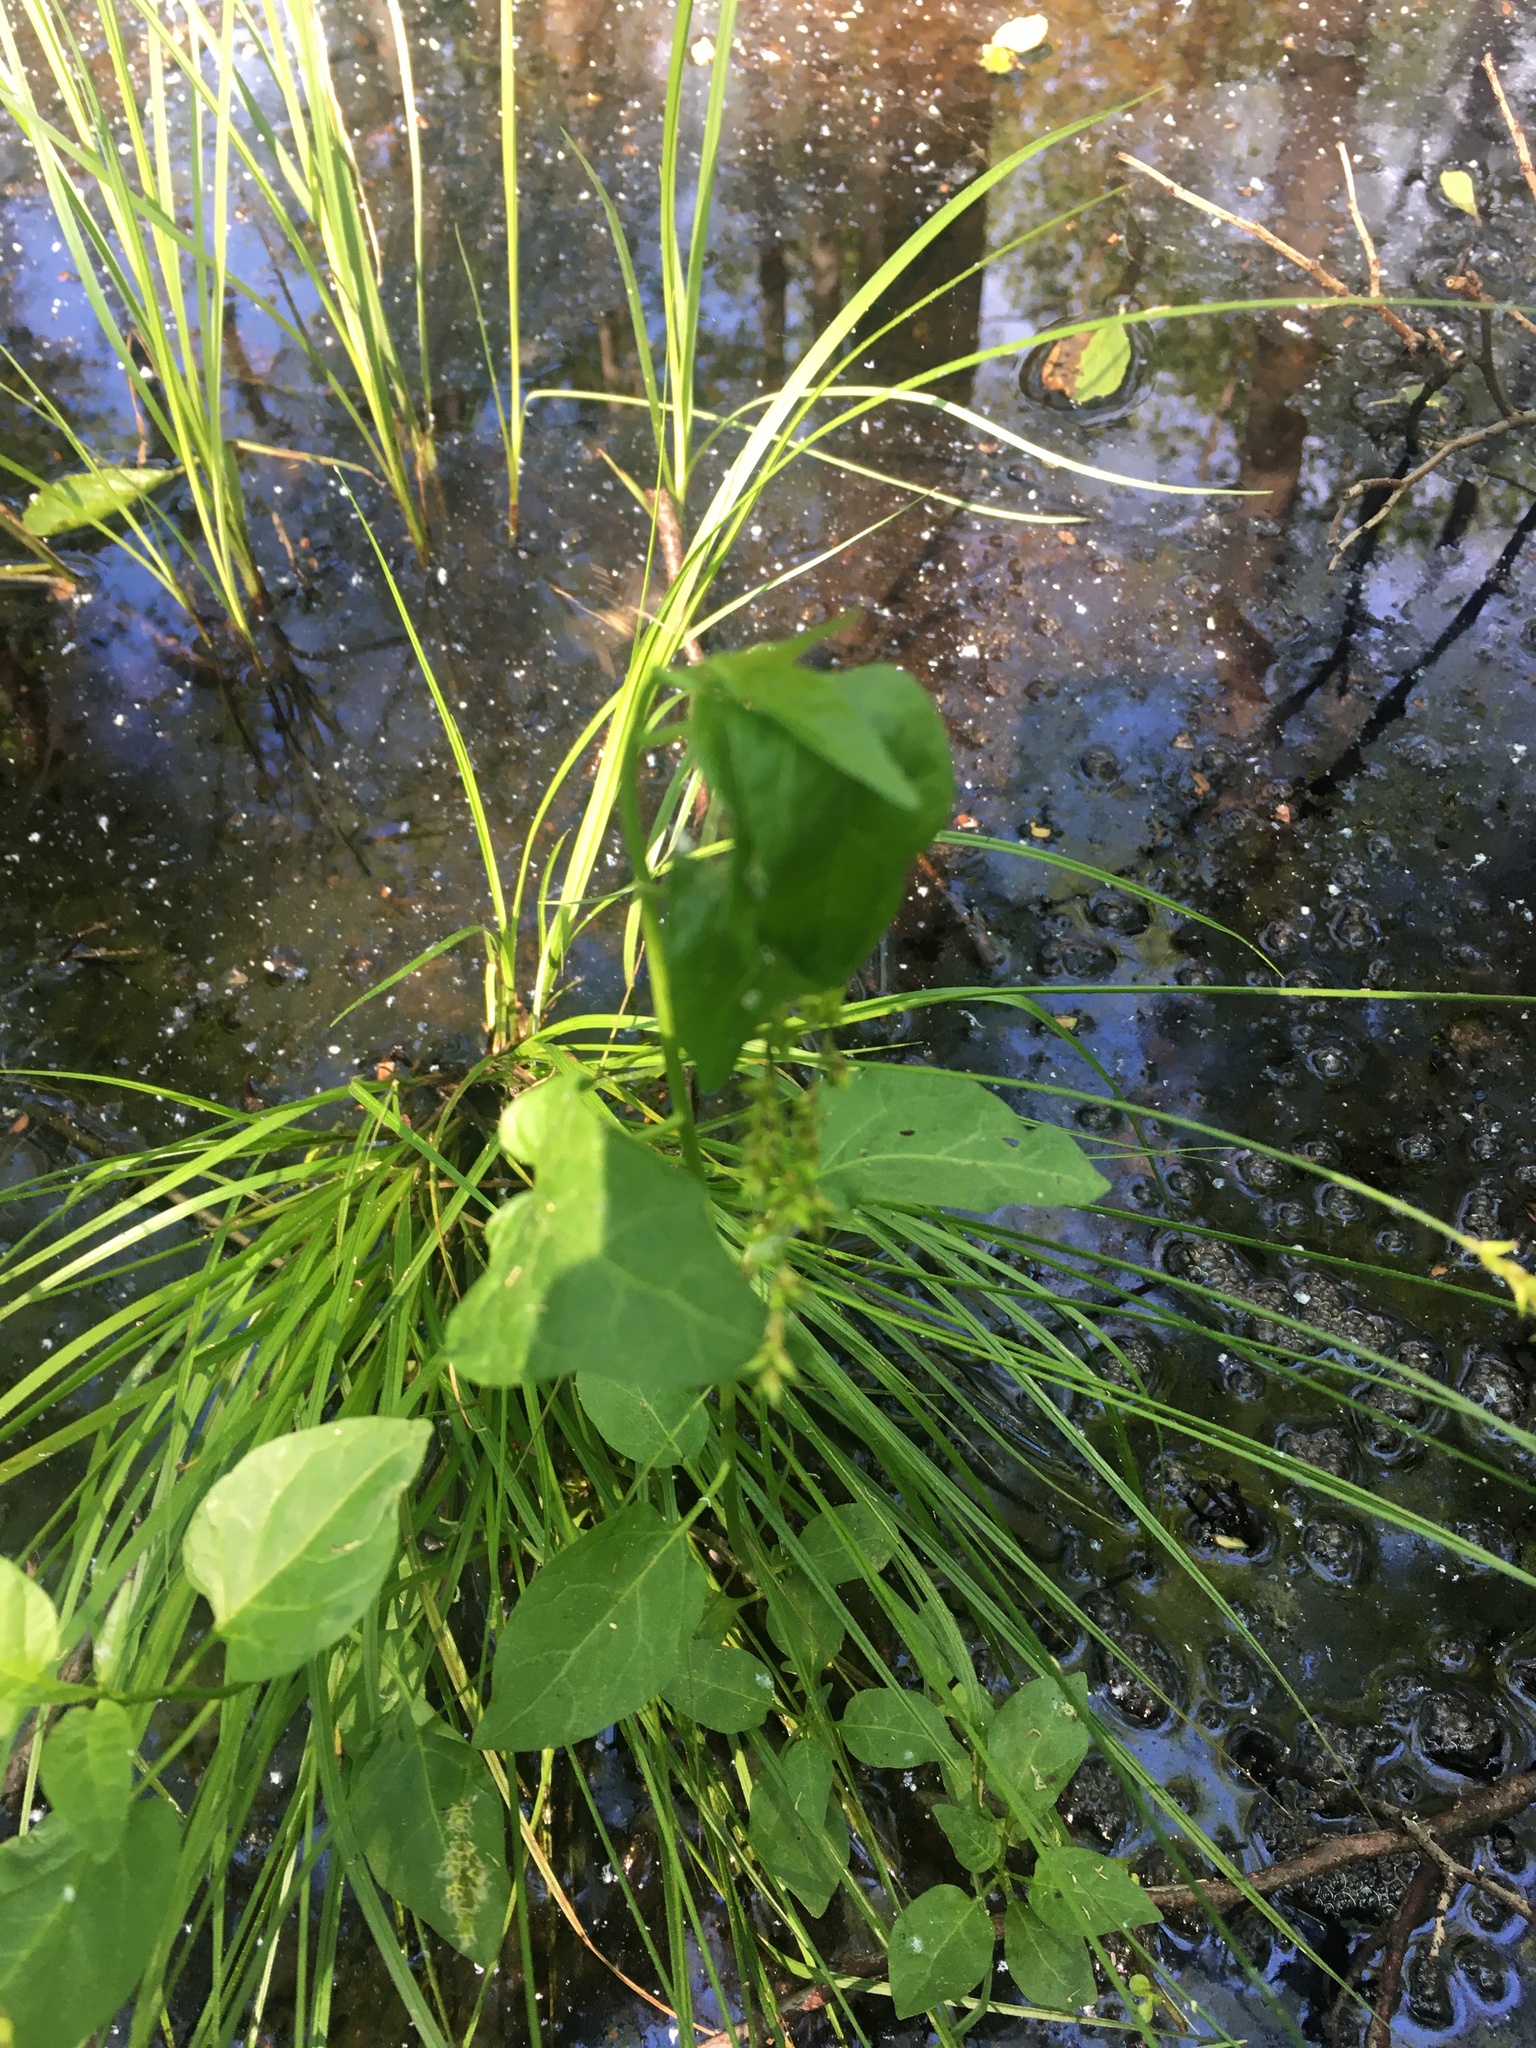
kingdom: Plantae
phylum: Tracheophyta
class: Magnoliopsida
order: Solanales
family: Solanaceae
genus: Solanum
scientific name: Solanum dulcamara
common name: Climbing nightshade
